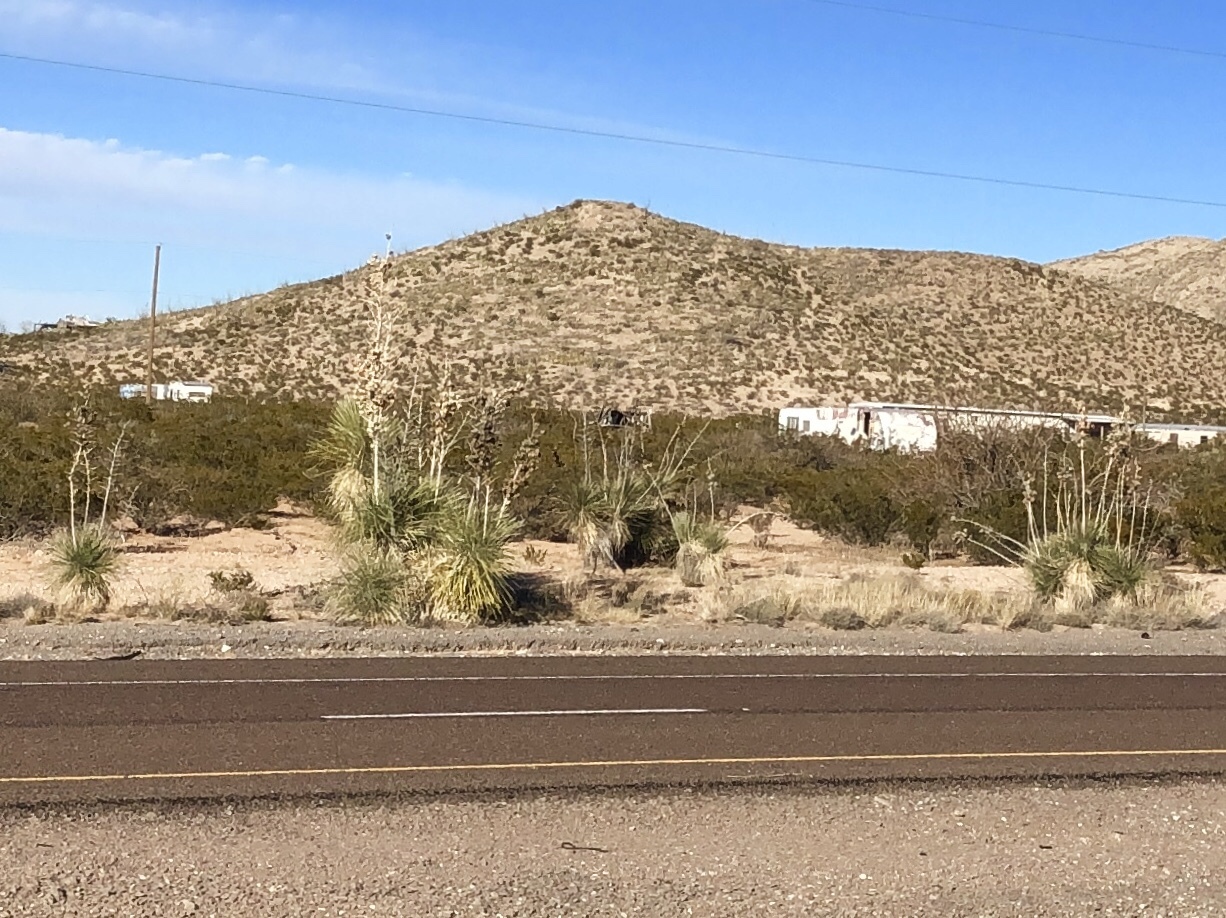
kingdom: Plantae
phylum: Tracheophyta
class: Liliopsida
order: Asparagales
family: Asparagaceae
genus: Yucca
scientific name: Yucca elata
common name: Palmella
